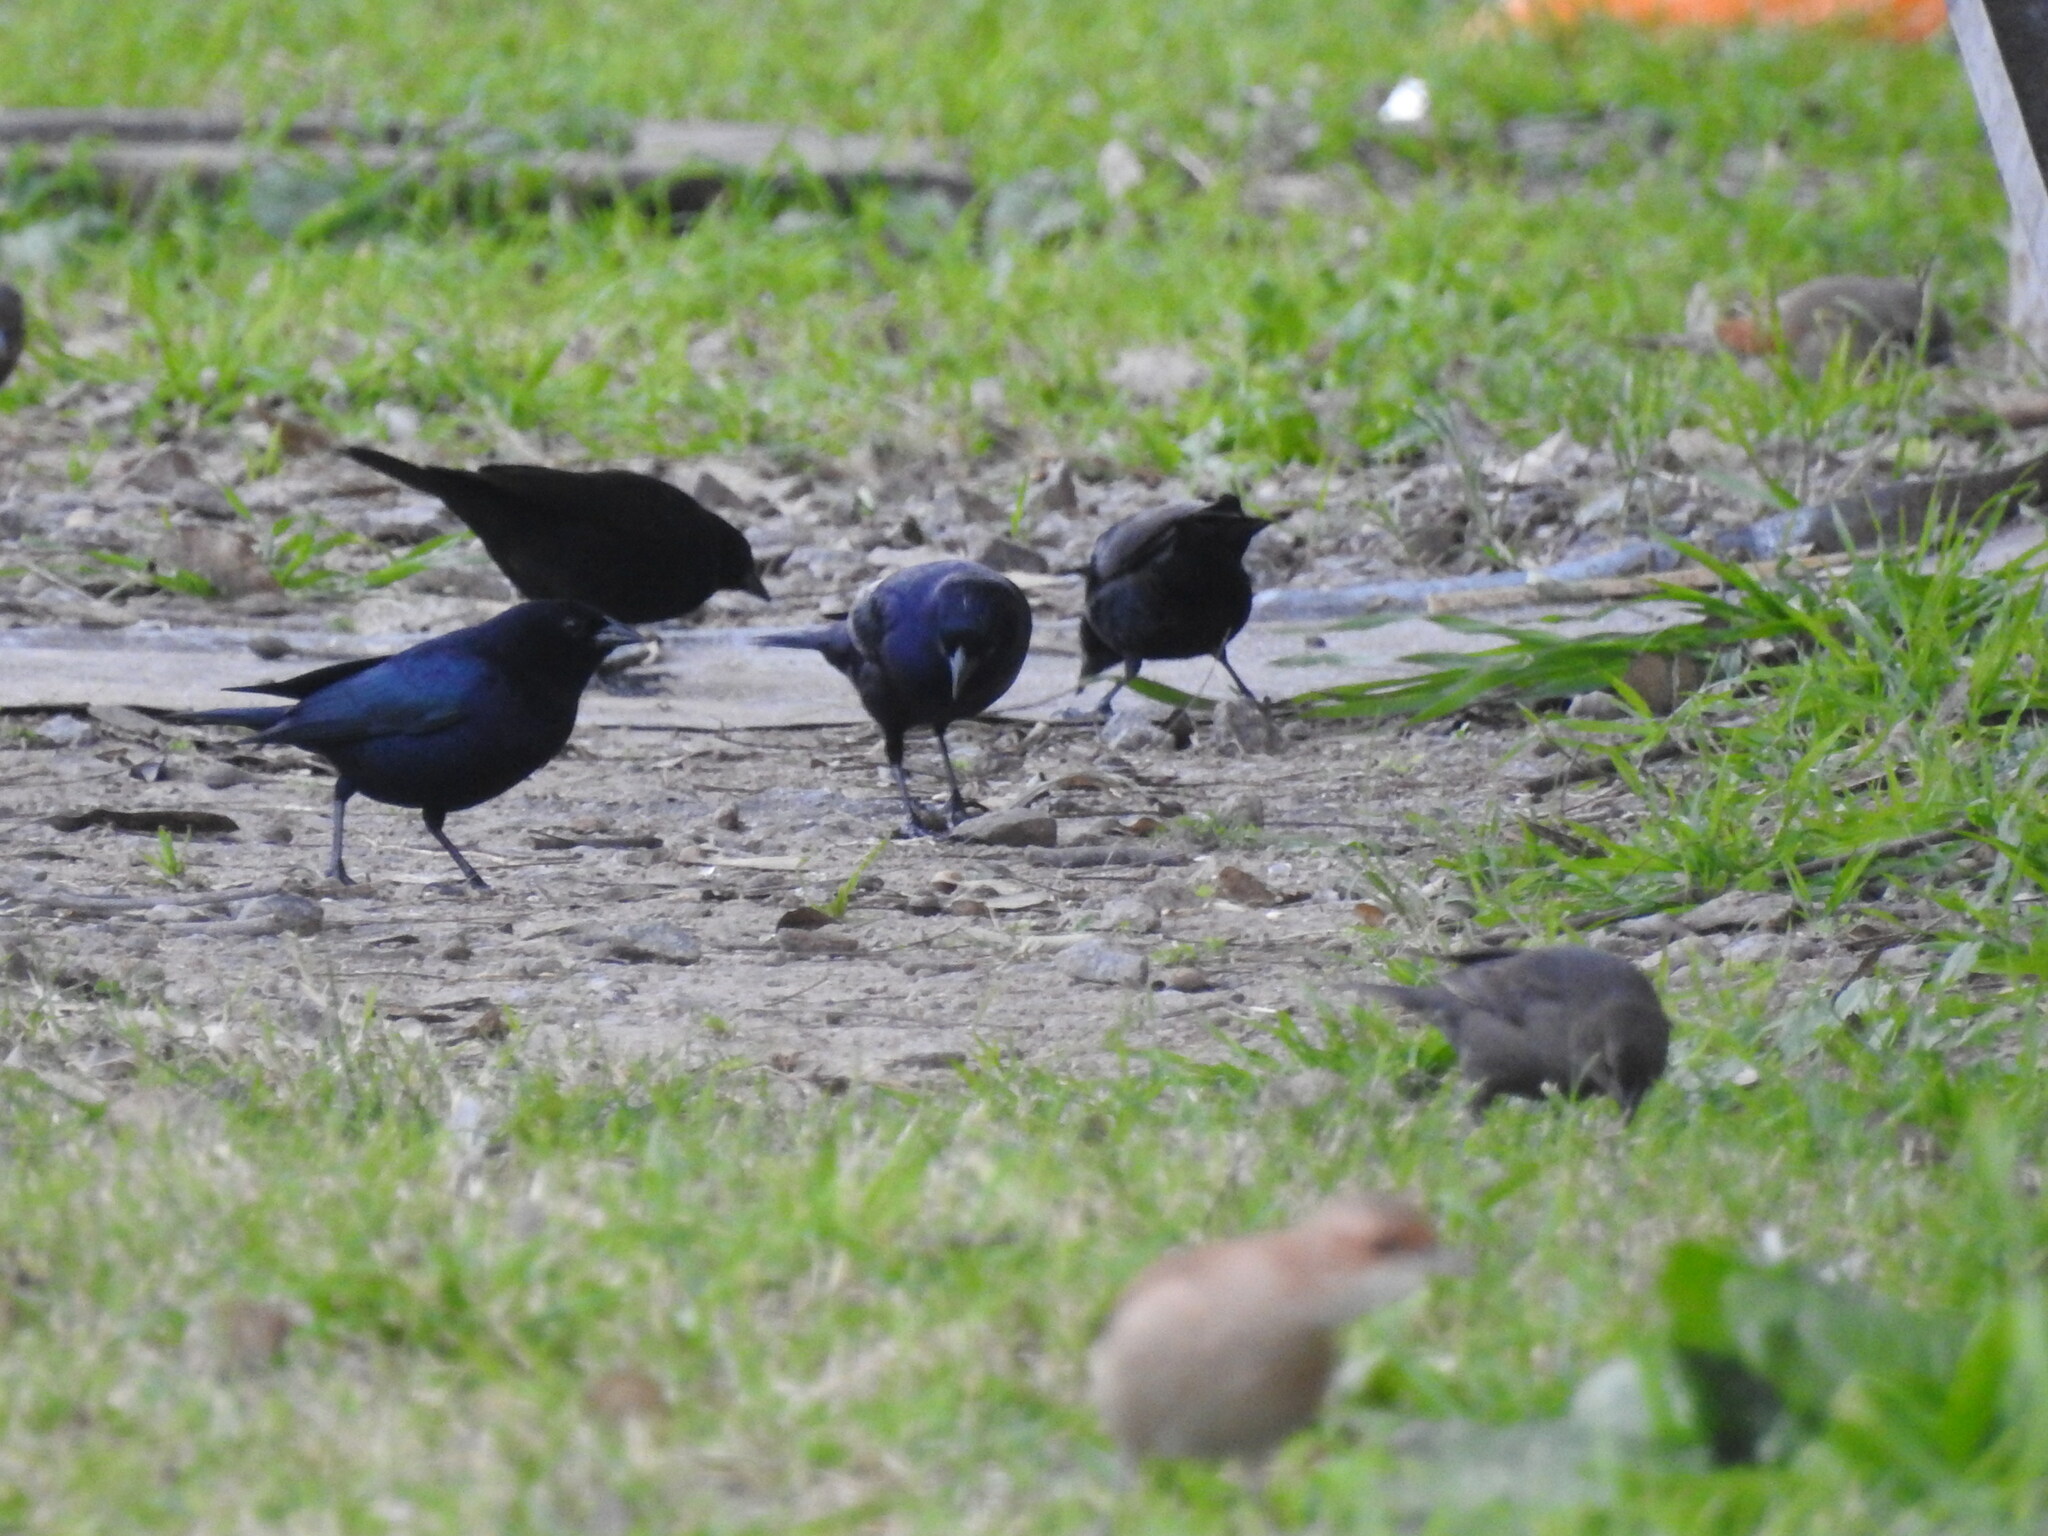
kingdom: Animalia
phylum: Chordata
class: Aves
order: Passeriformes
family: Icteridae
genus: Molothrus
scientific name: Molothrus bonariensis
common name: Shiny cowbird
